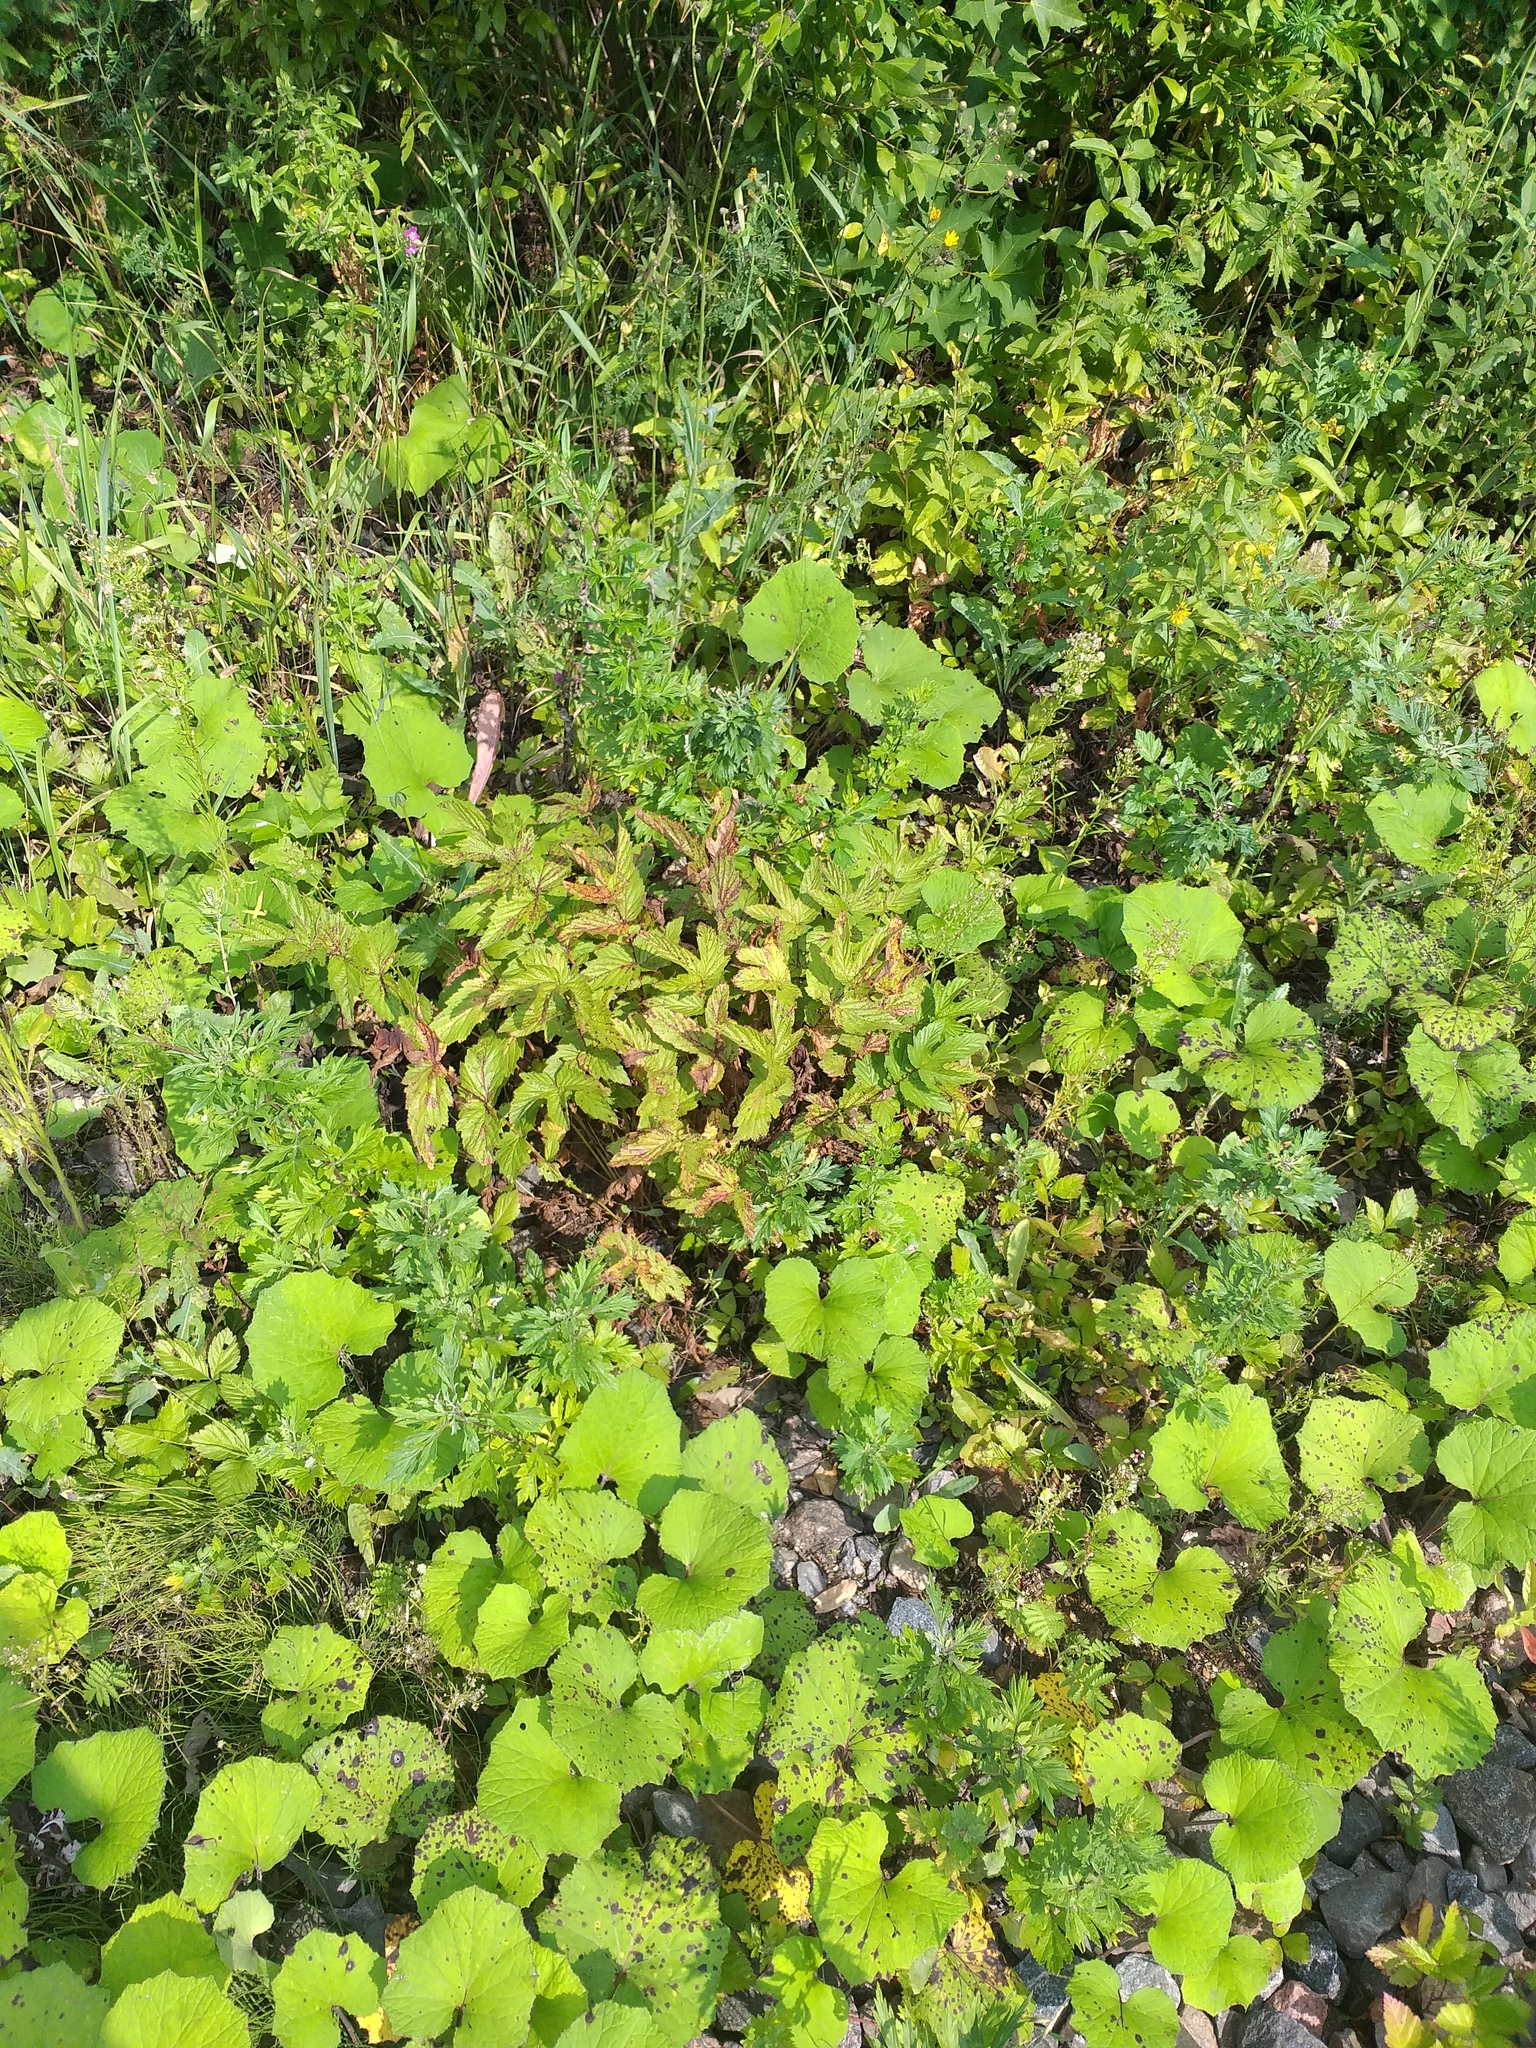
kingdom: Plantae
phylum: Tracheophyta
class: Magnoliopsida
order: Rosales
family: Rosaceae
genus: Filipendula
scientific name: Filipendula ulmaria
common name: Meadowsweet
